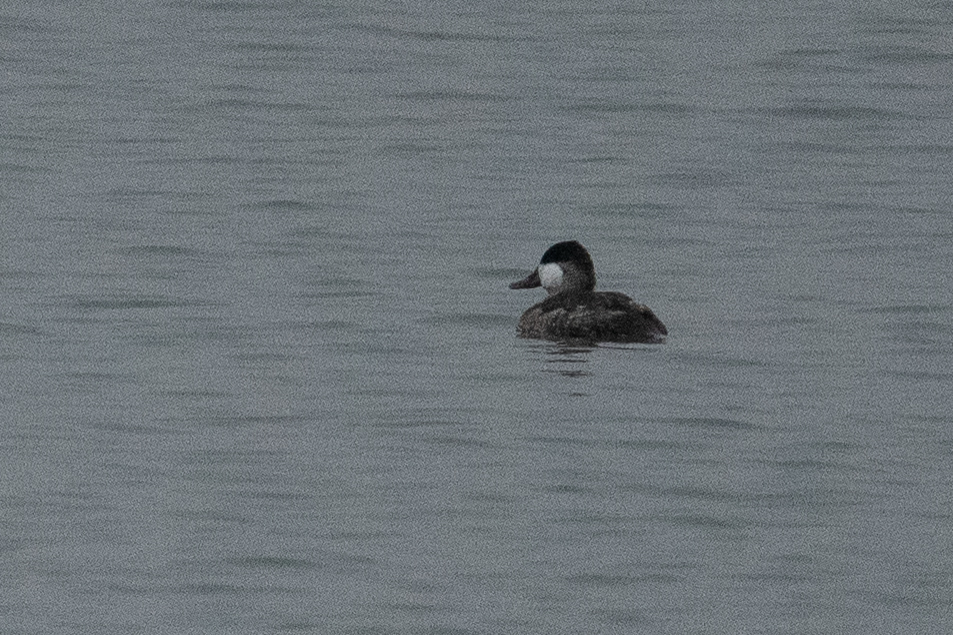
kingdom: Animalia
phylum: Chordata
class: Aves
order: Anseriformes
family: Anatidae
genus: Oxyura
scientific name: Oxyura jamaicensis
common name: Ruddy duck
